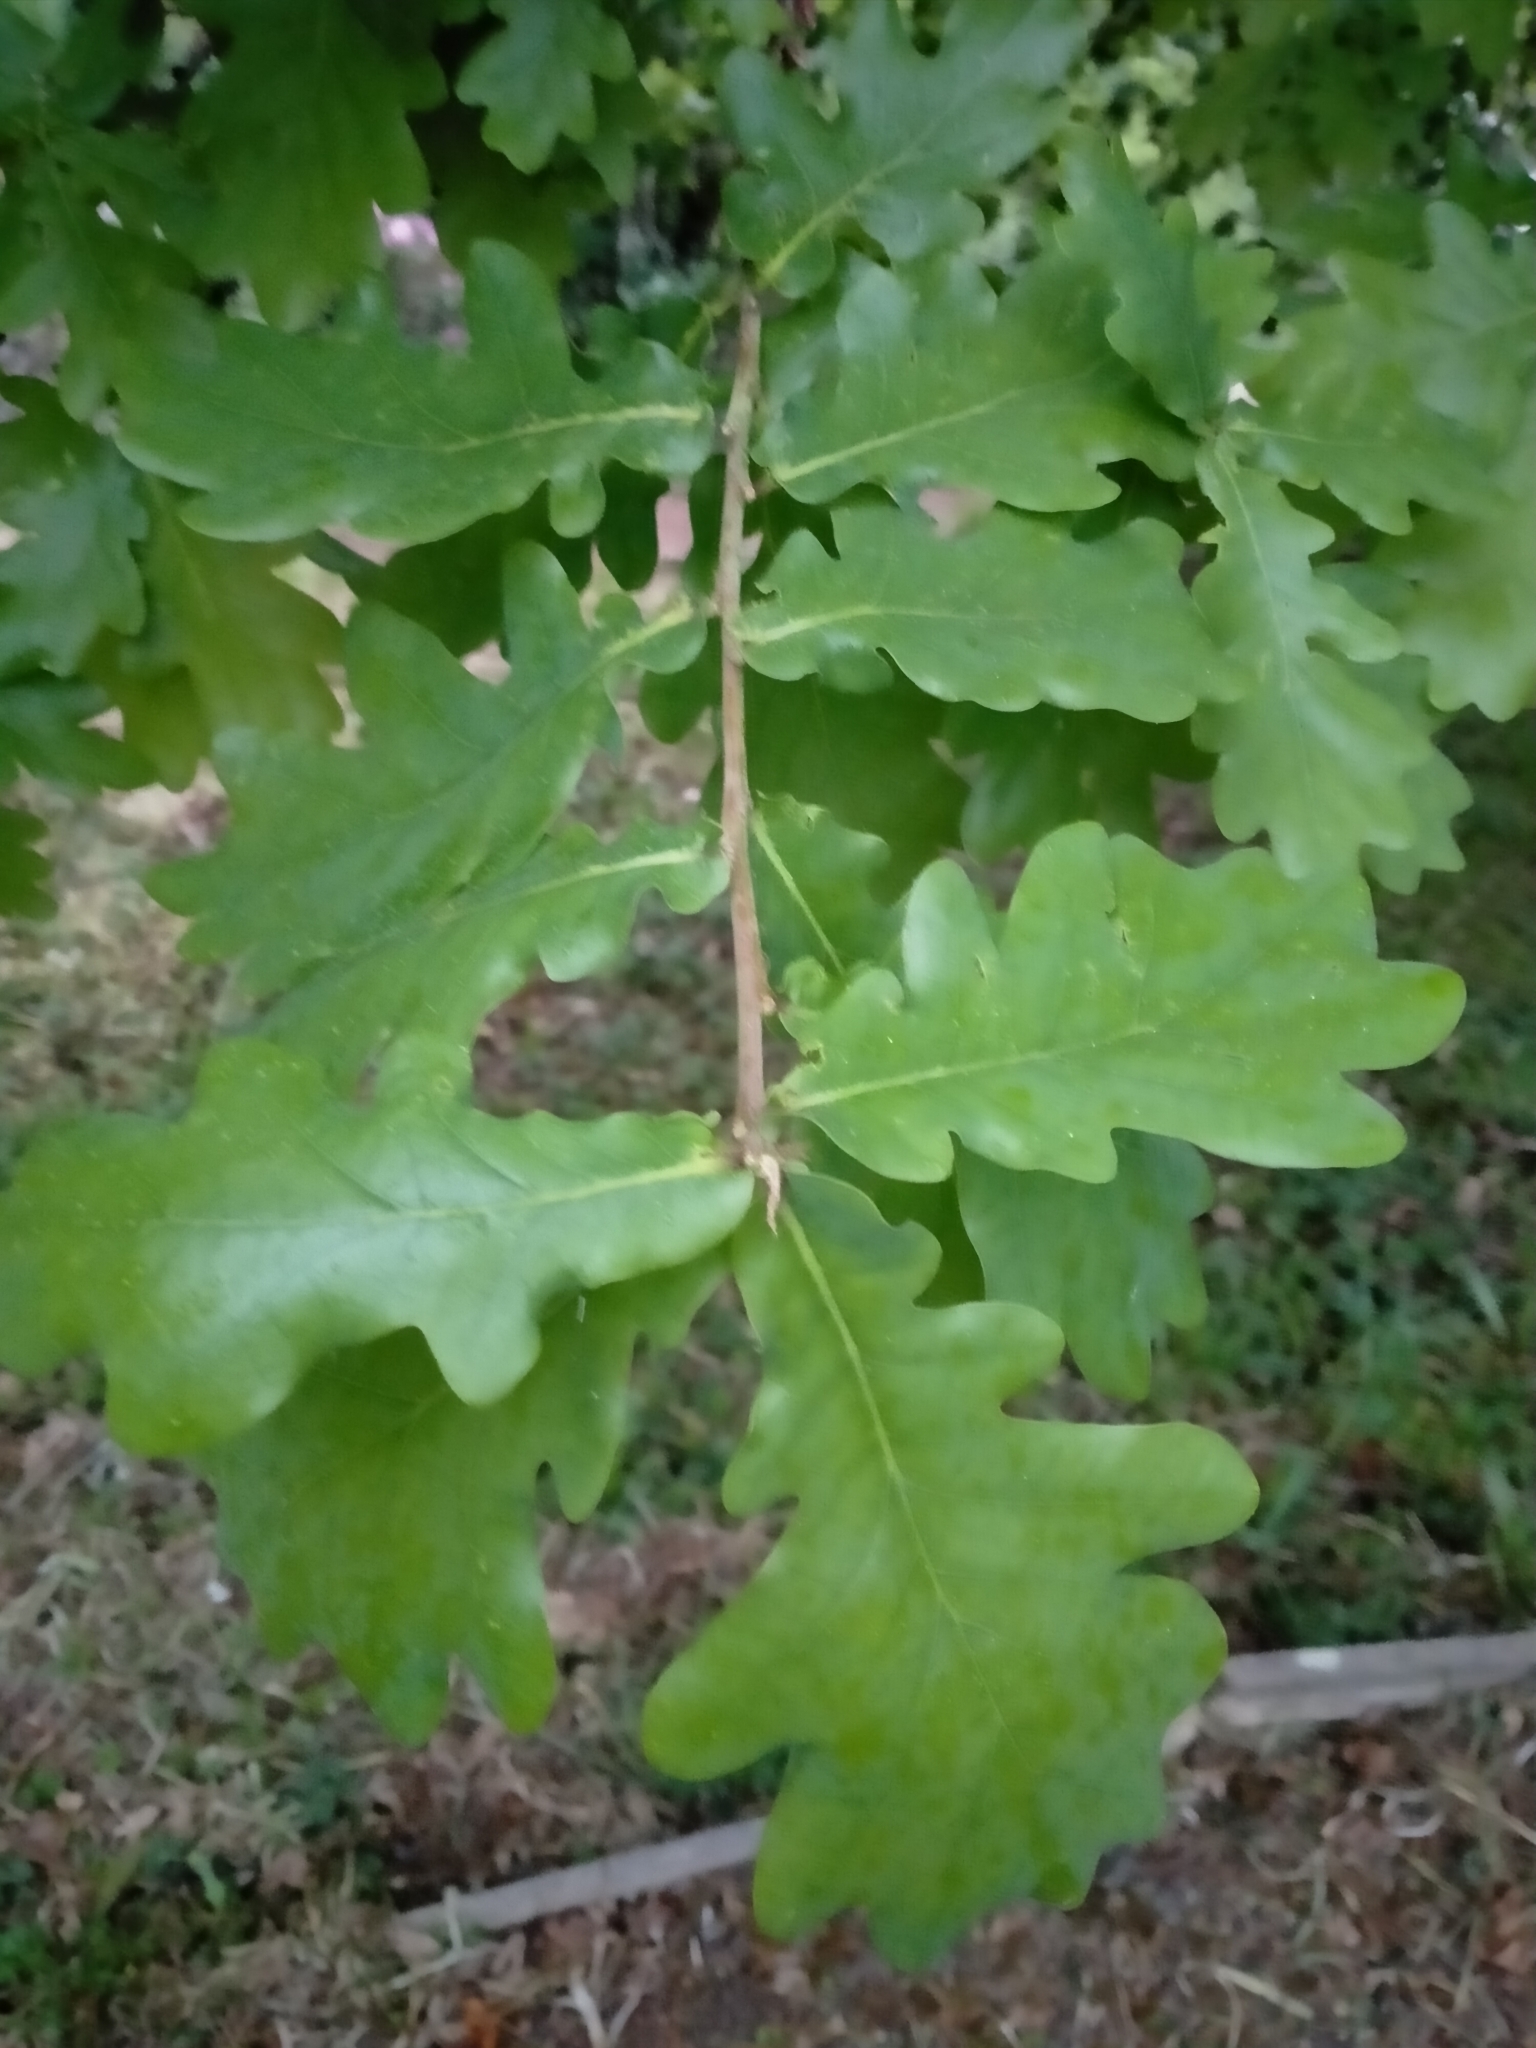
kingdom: Plantae
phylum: Tracheophyta
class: Magnoliopsida
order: Fagales
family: Fagaceae
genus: Quercus
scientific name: Quercus robur
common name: Pedunculate oak
